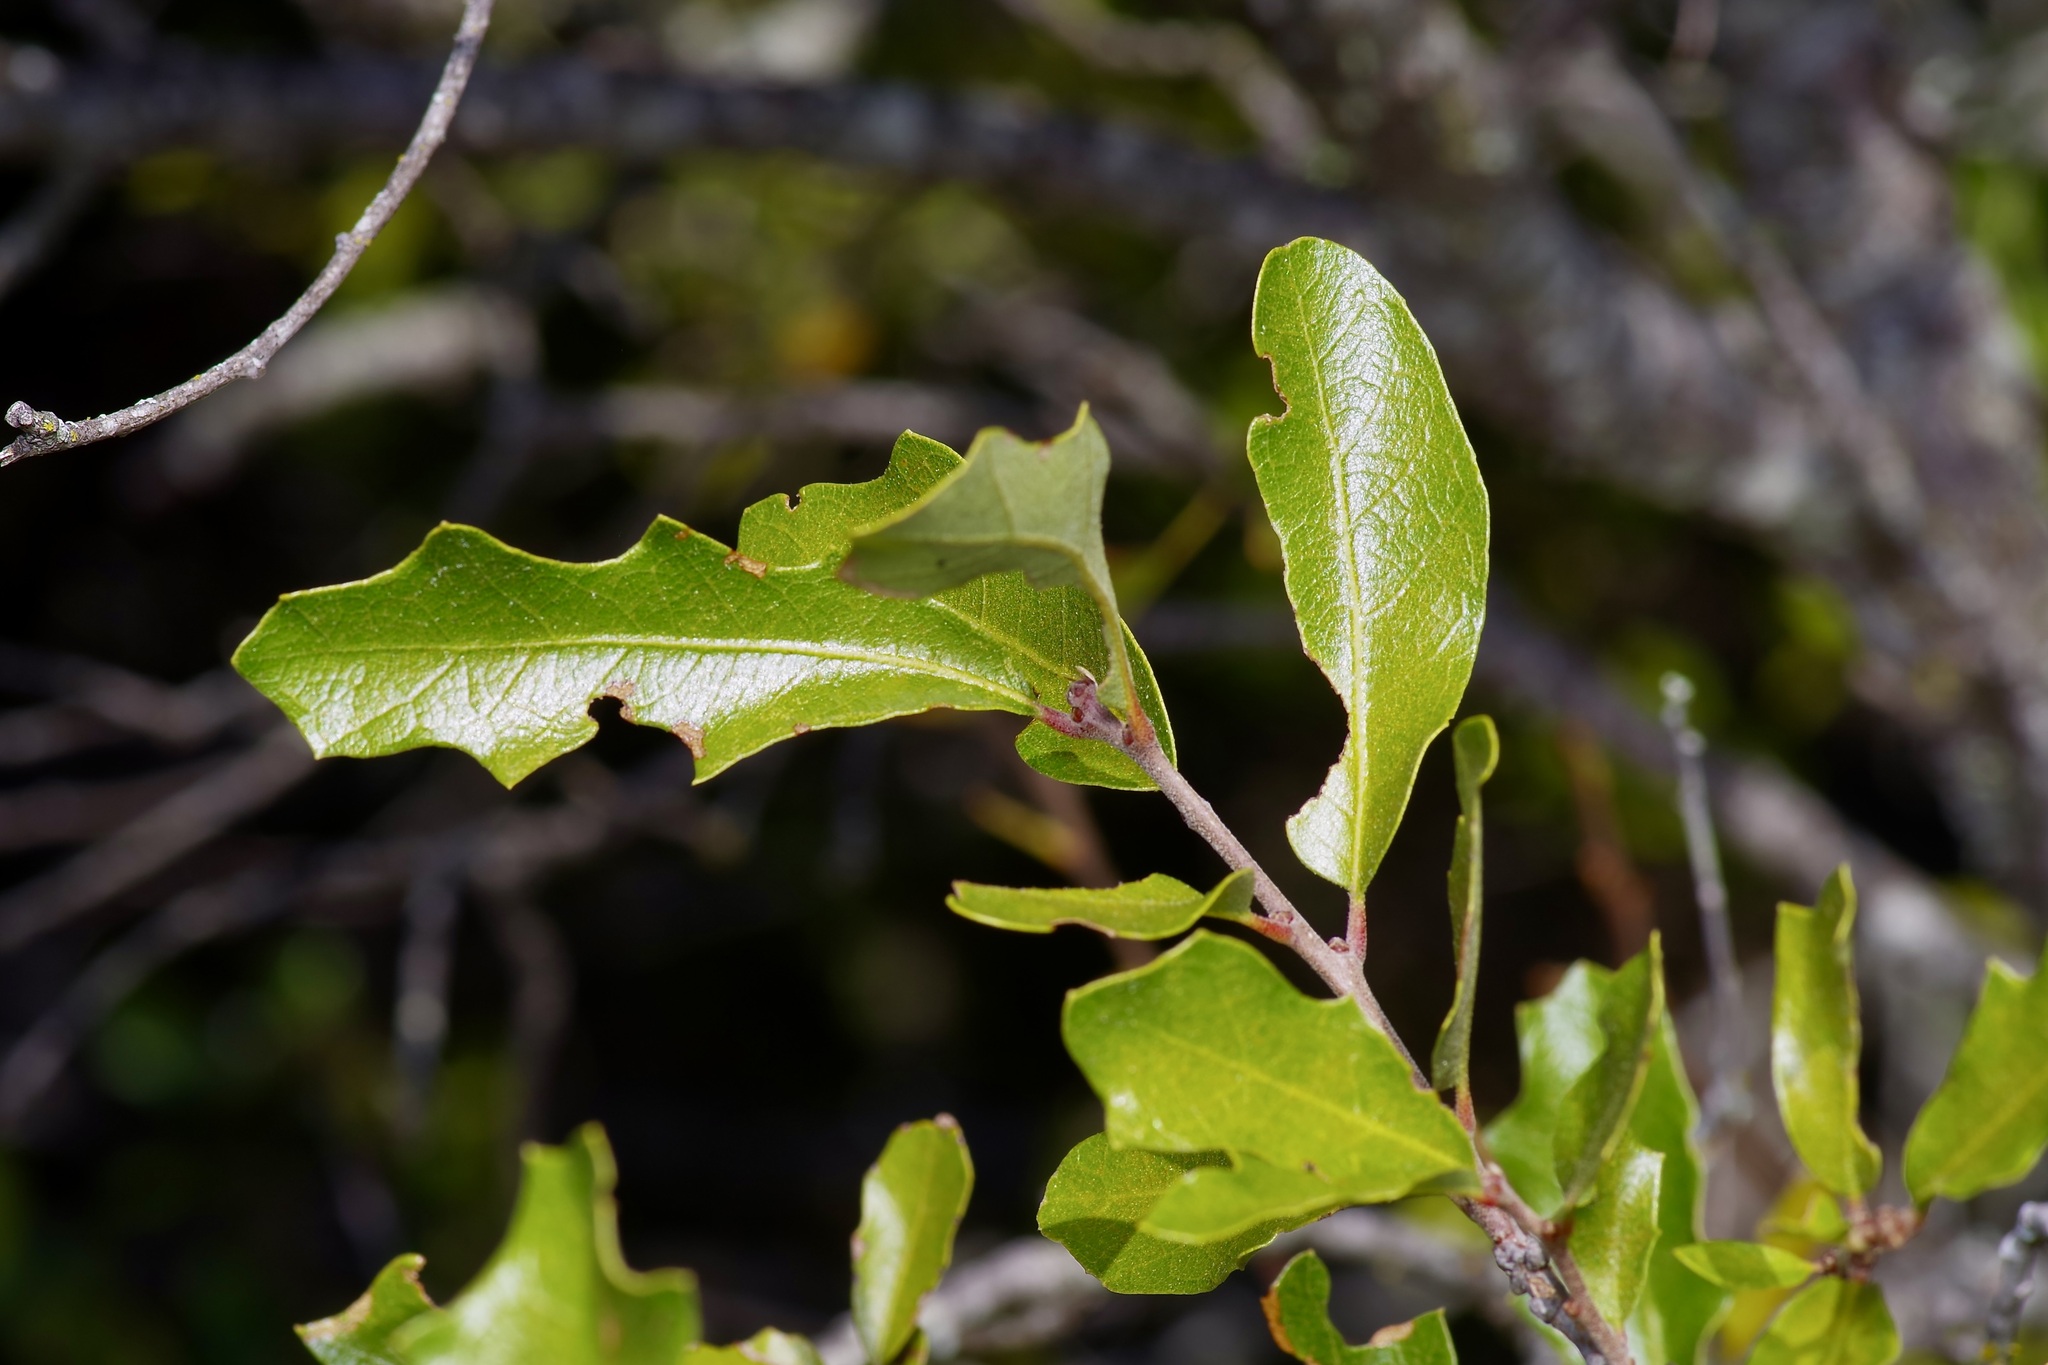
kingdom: Plantae
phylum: Tracheophyta
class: Magnoliopsida
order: Fagales
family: Fagaceae
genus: Quercus
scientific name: Quercus vaseyana
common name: Sandpaper oak
